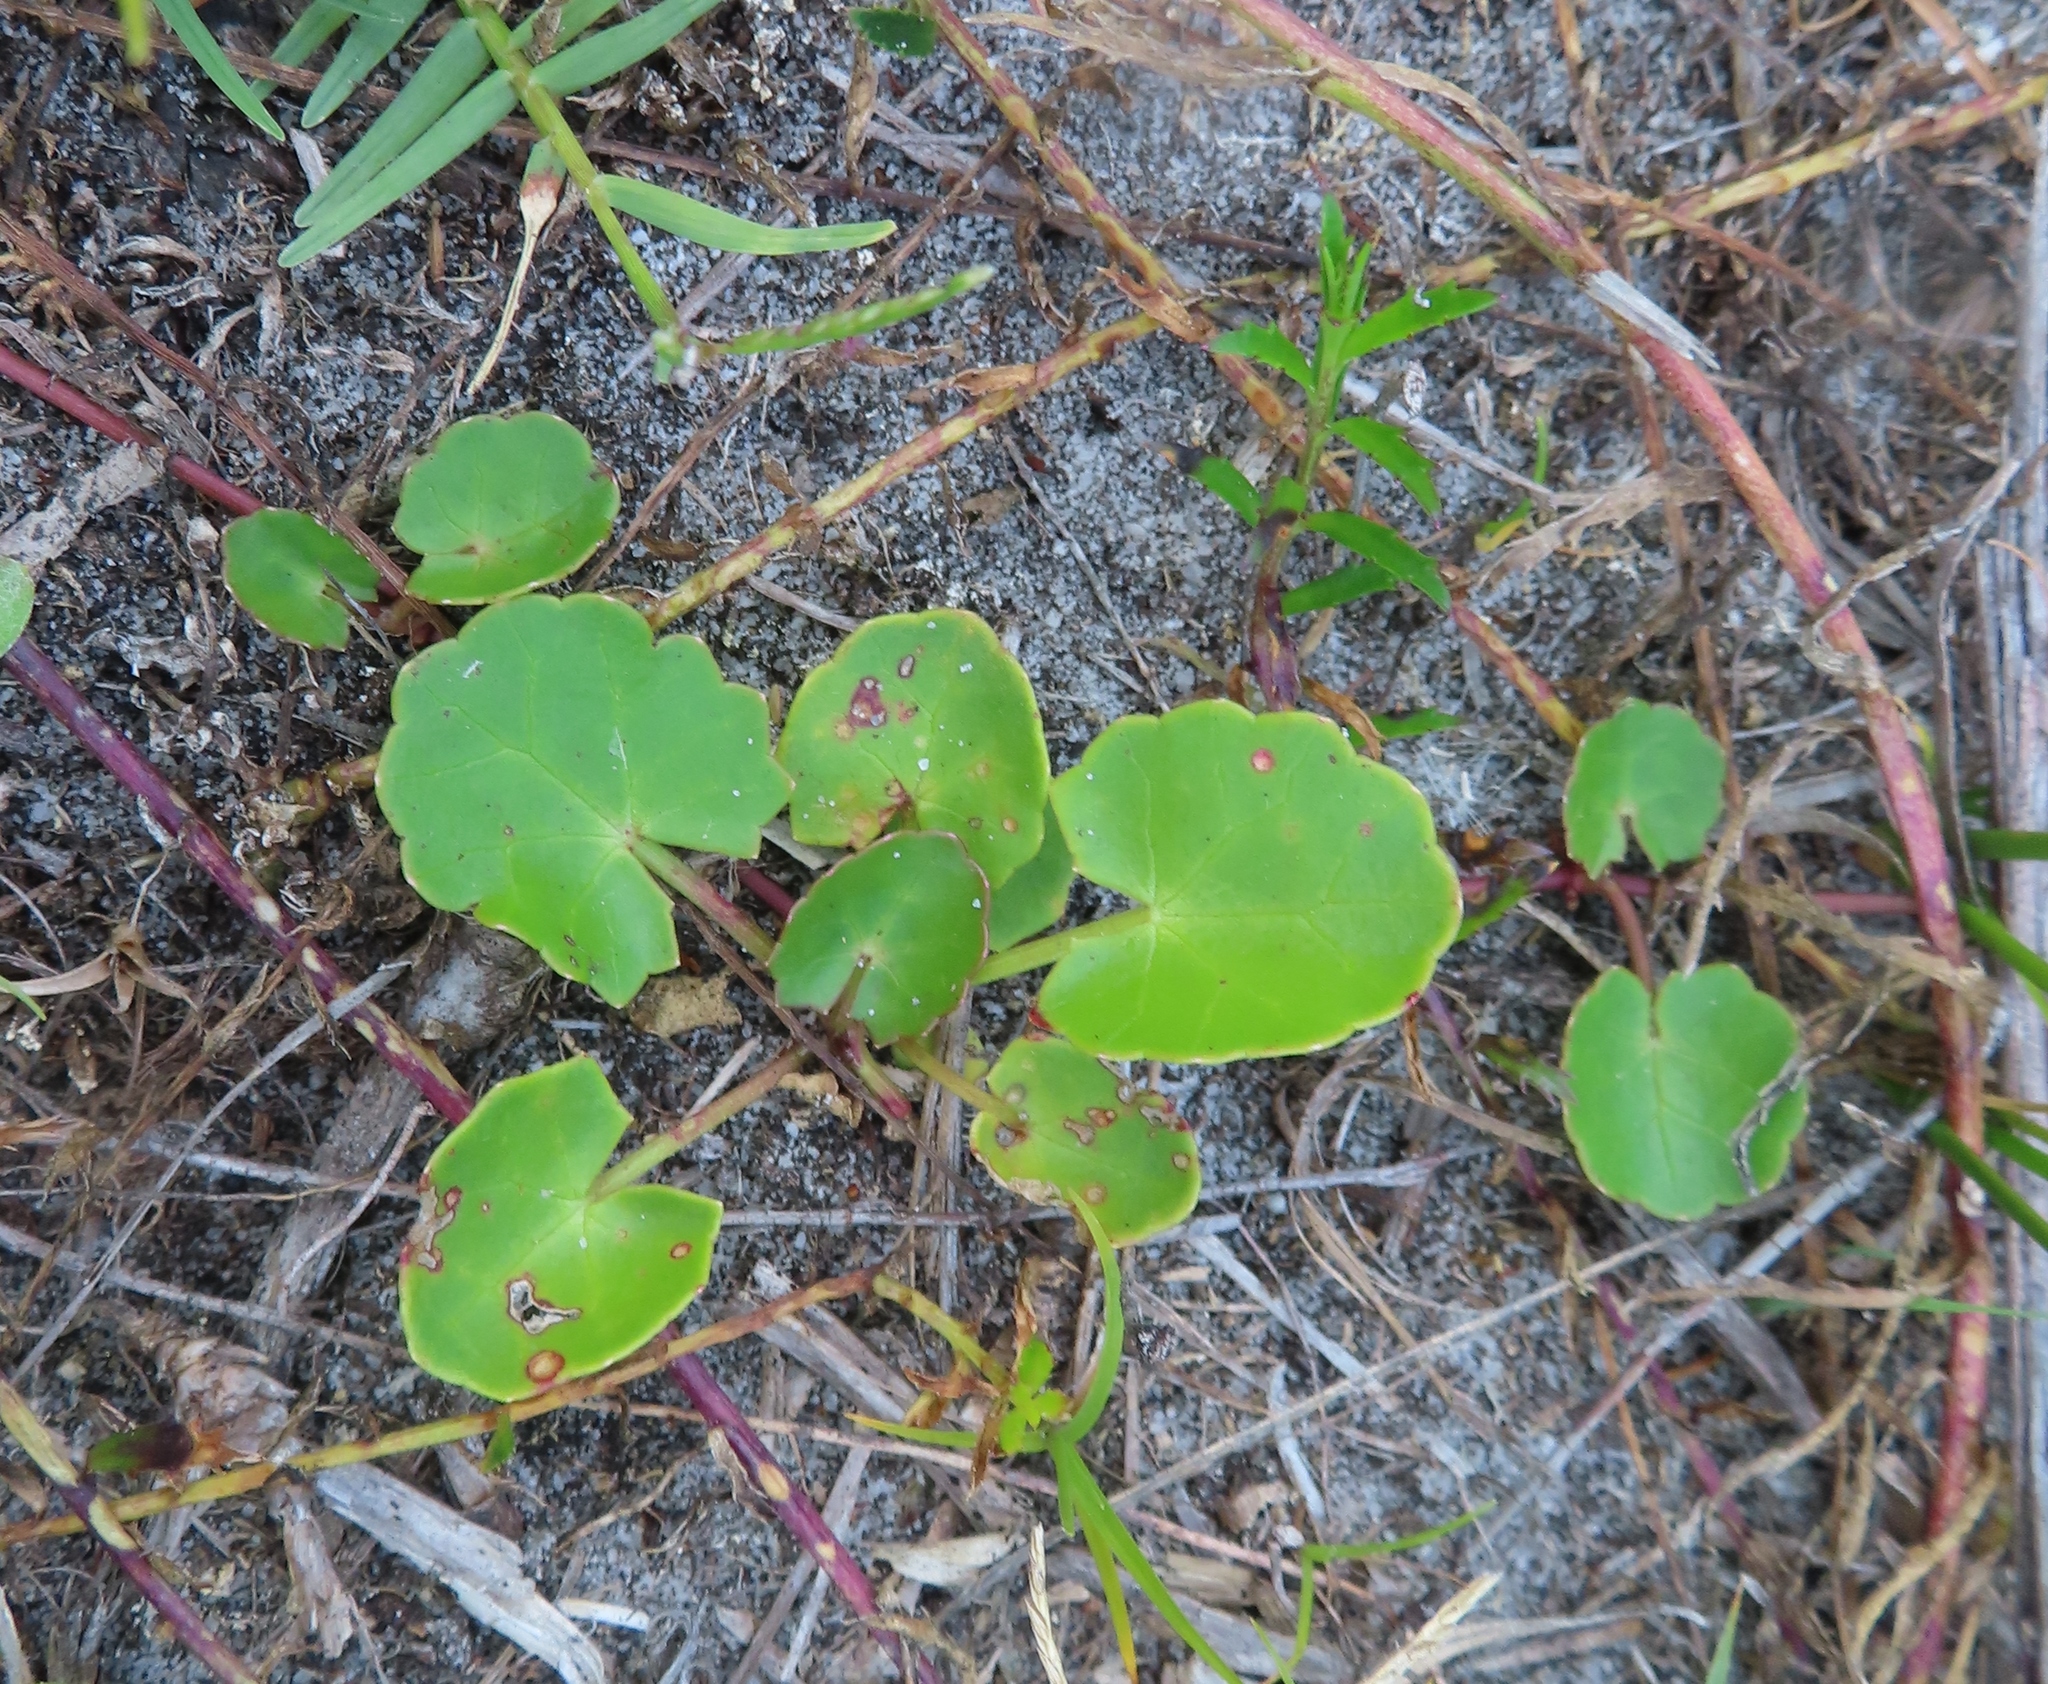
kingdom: Plantae
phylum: Tracheophyta
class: Magnoliopsida
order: Apiales
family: Apiaceae
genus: Centella
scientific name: Centella asiatica
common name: Spadeleaf
